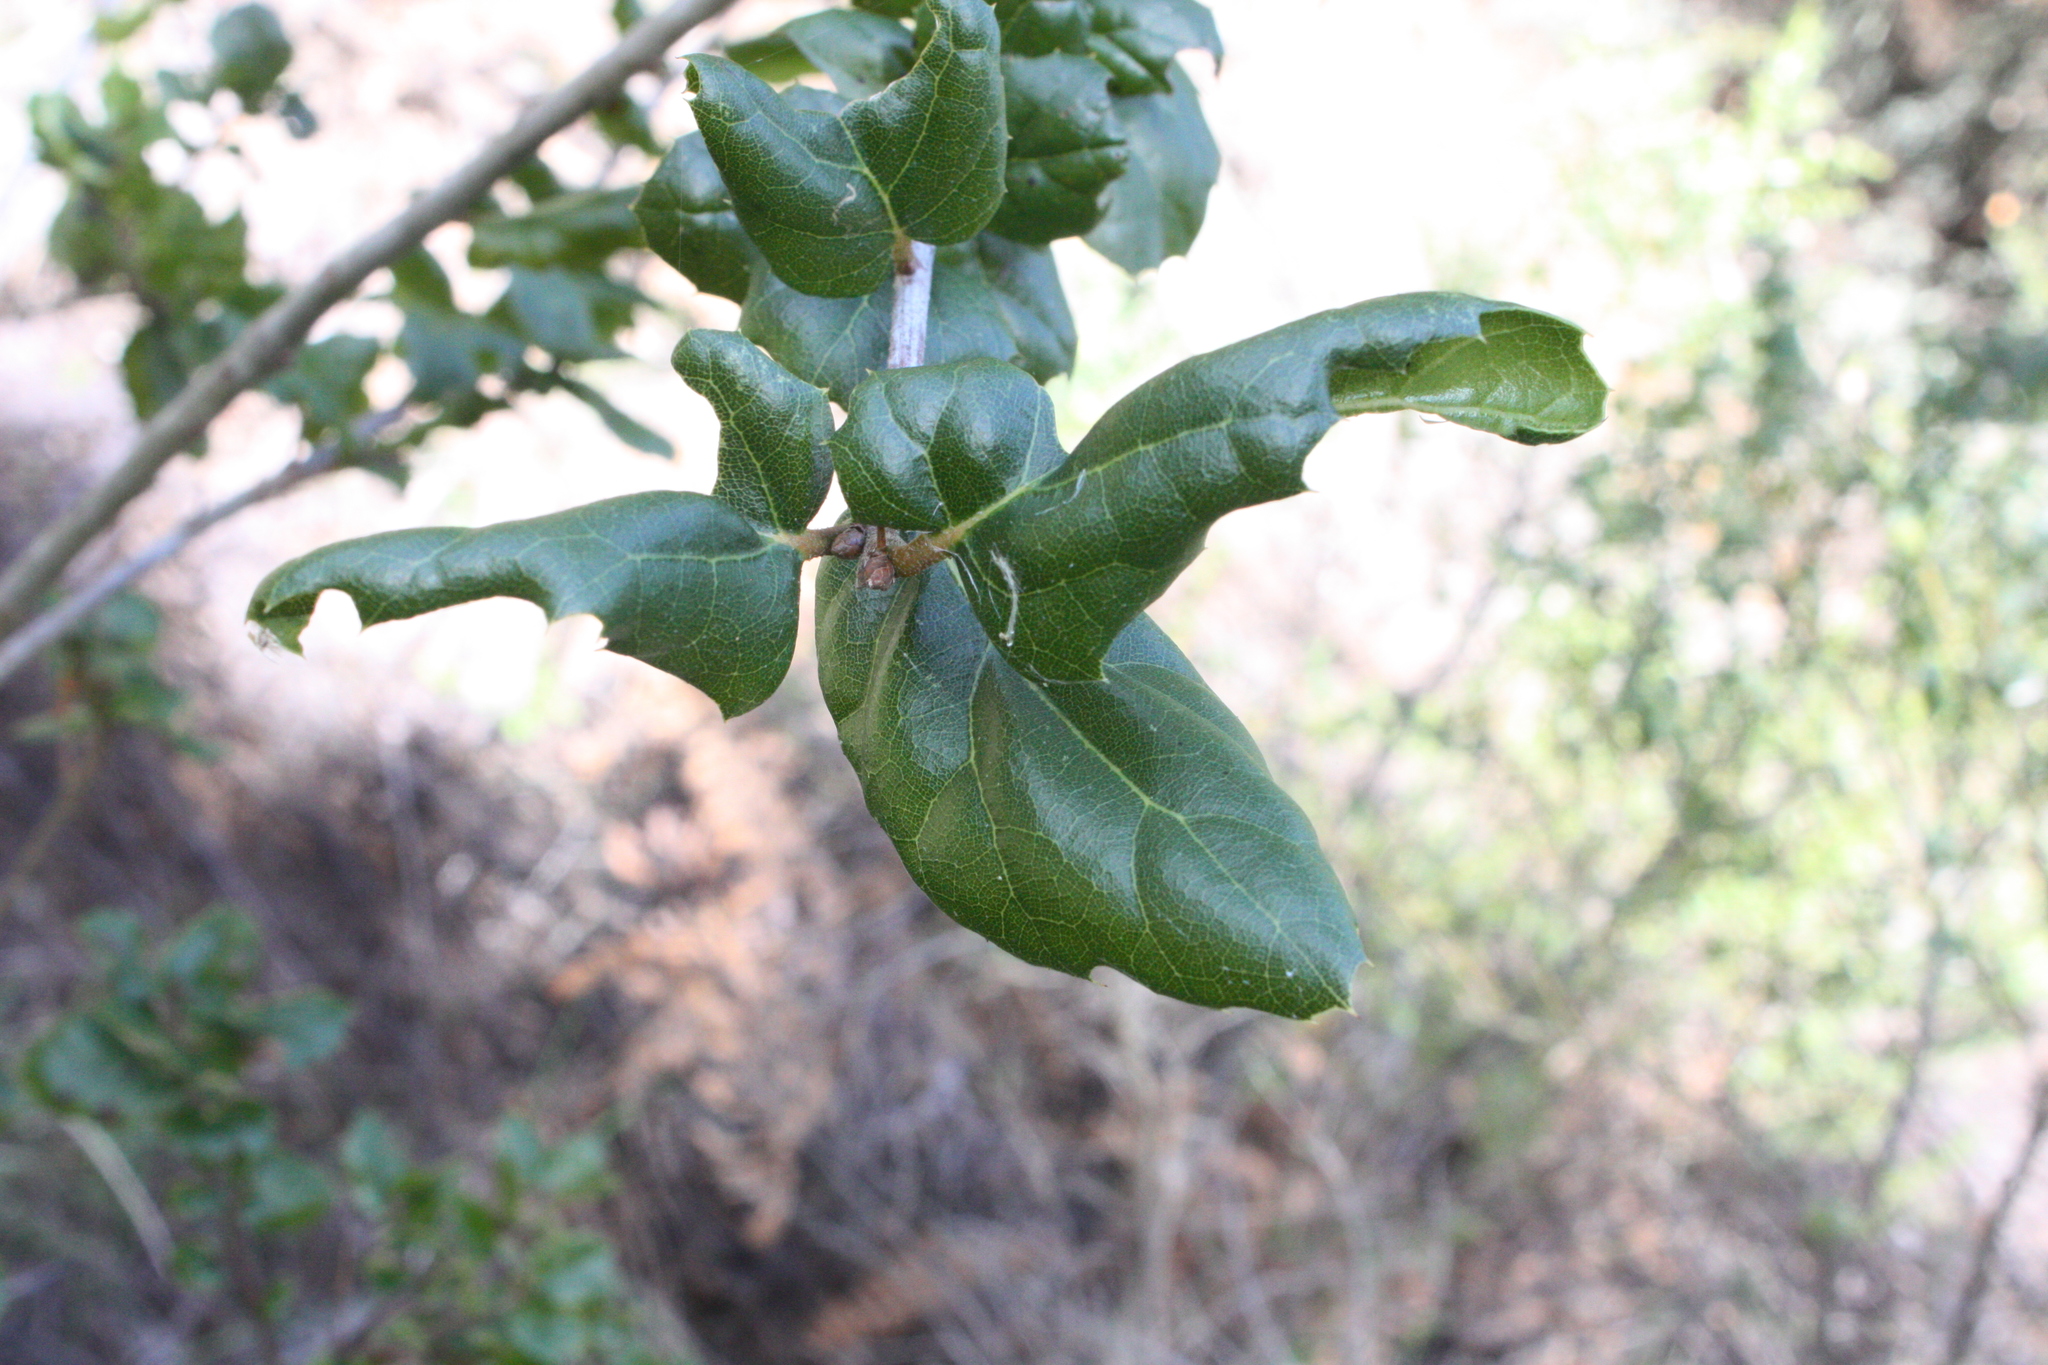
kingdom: Plantae
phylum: Tracheophyta
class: Magnoliopsida
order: Fagales
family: Fagaceae
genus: Quercus
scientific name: Quercus agrifolia
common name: California live oak
